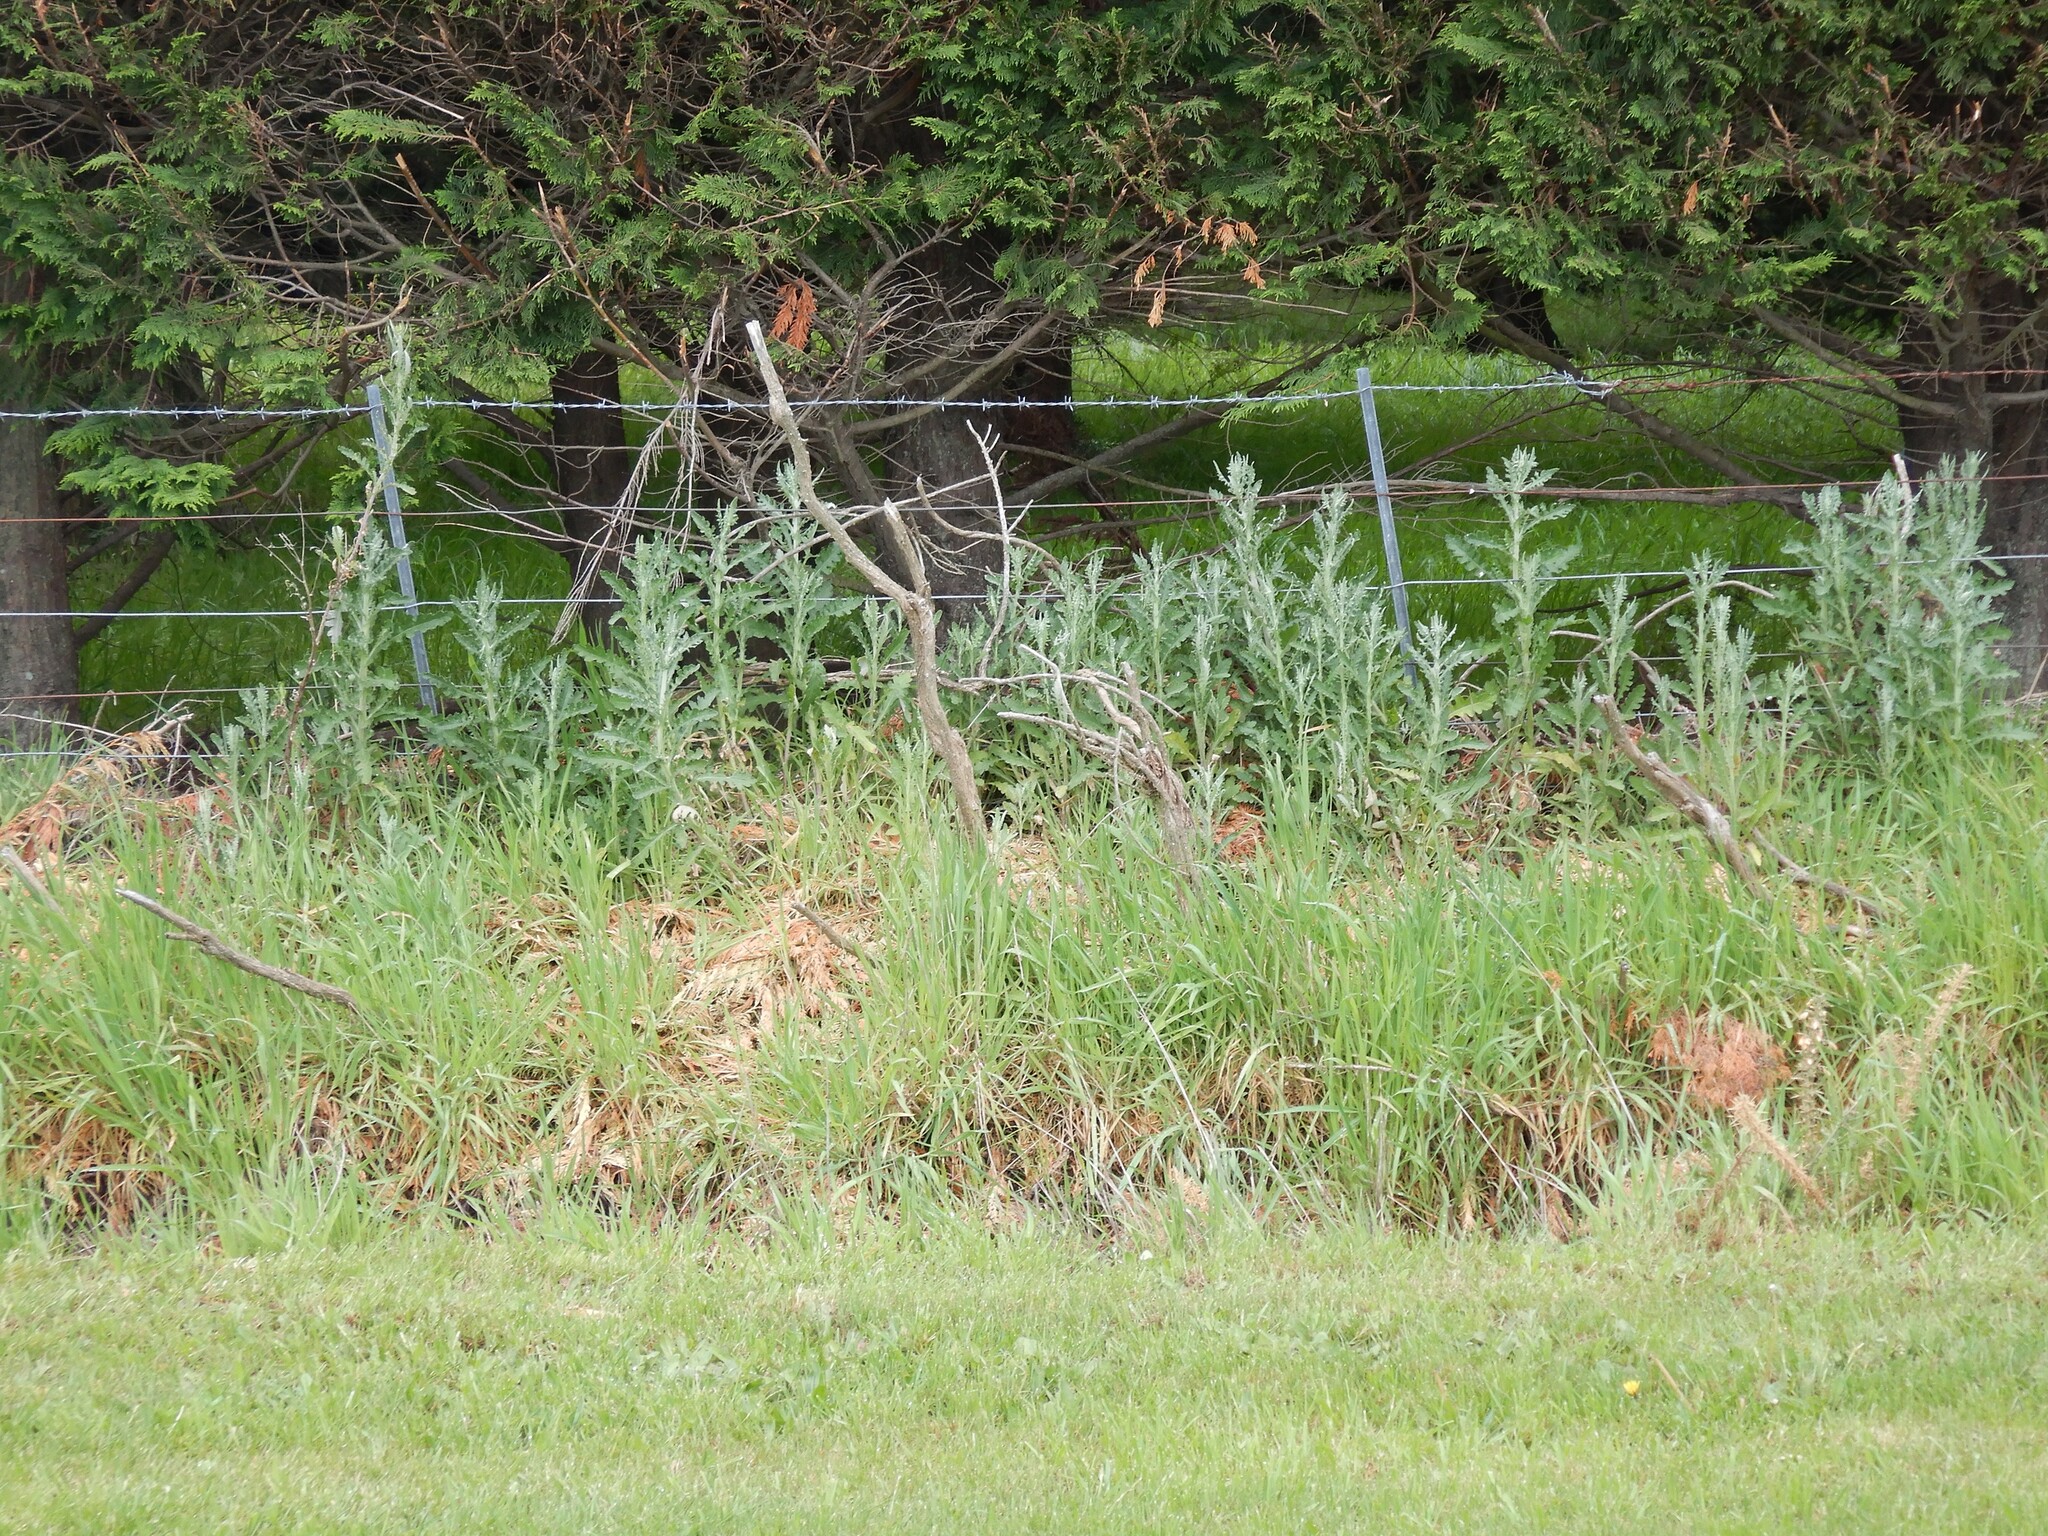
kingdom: Plantae
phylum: Tracheophyta
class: Magnoliopsida
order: Asterales
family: Asteraceae
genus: Senecio
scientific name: Senecio glomeratus
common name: Cutleaf burnweed
